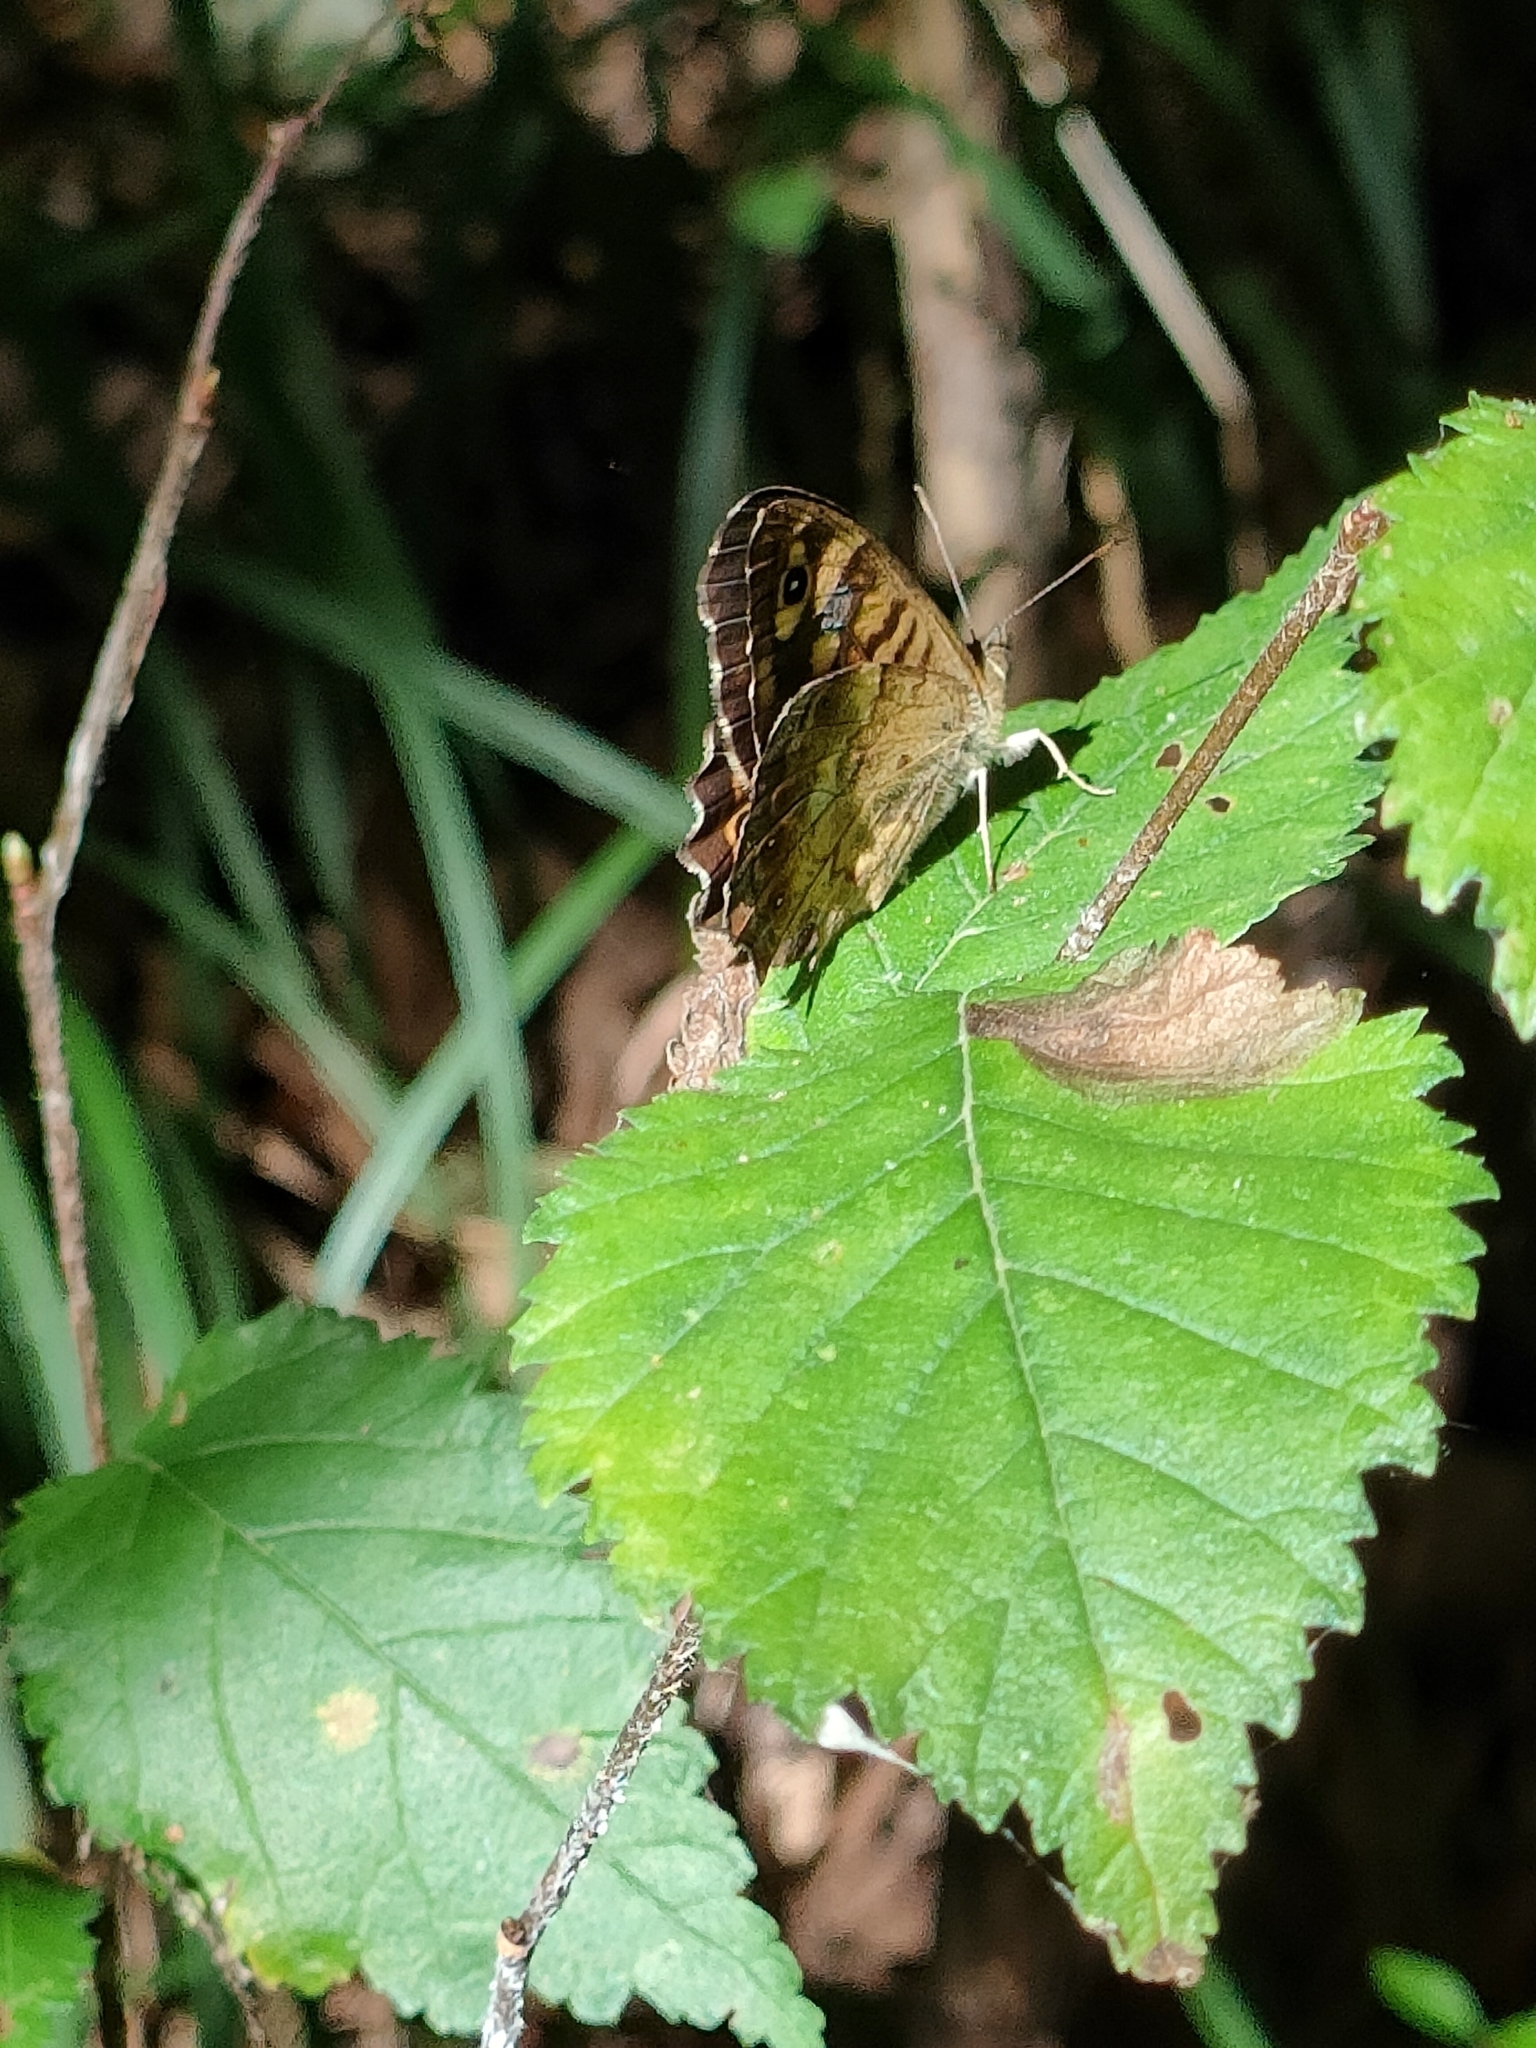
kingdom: Animalia
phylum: Arthropoda
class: Insecta
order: Lepidoptera
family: Nymphalidae
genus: Pararge
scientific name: Pararge aegeria
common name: Speckled wood
